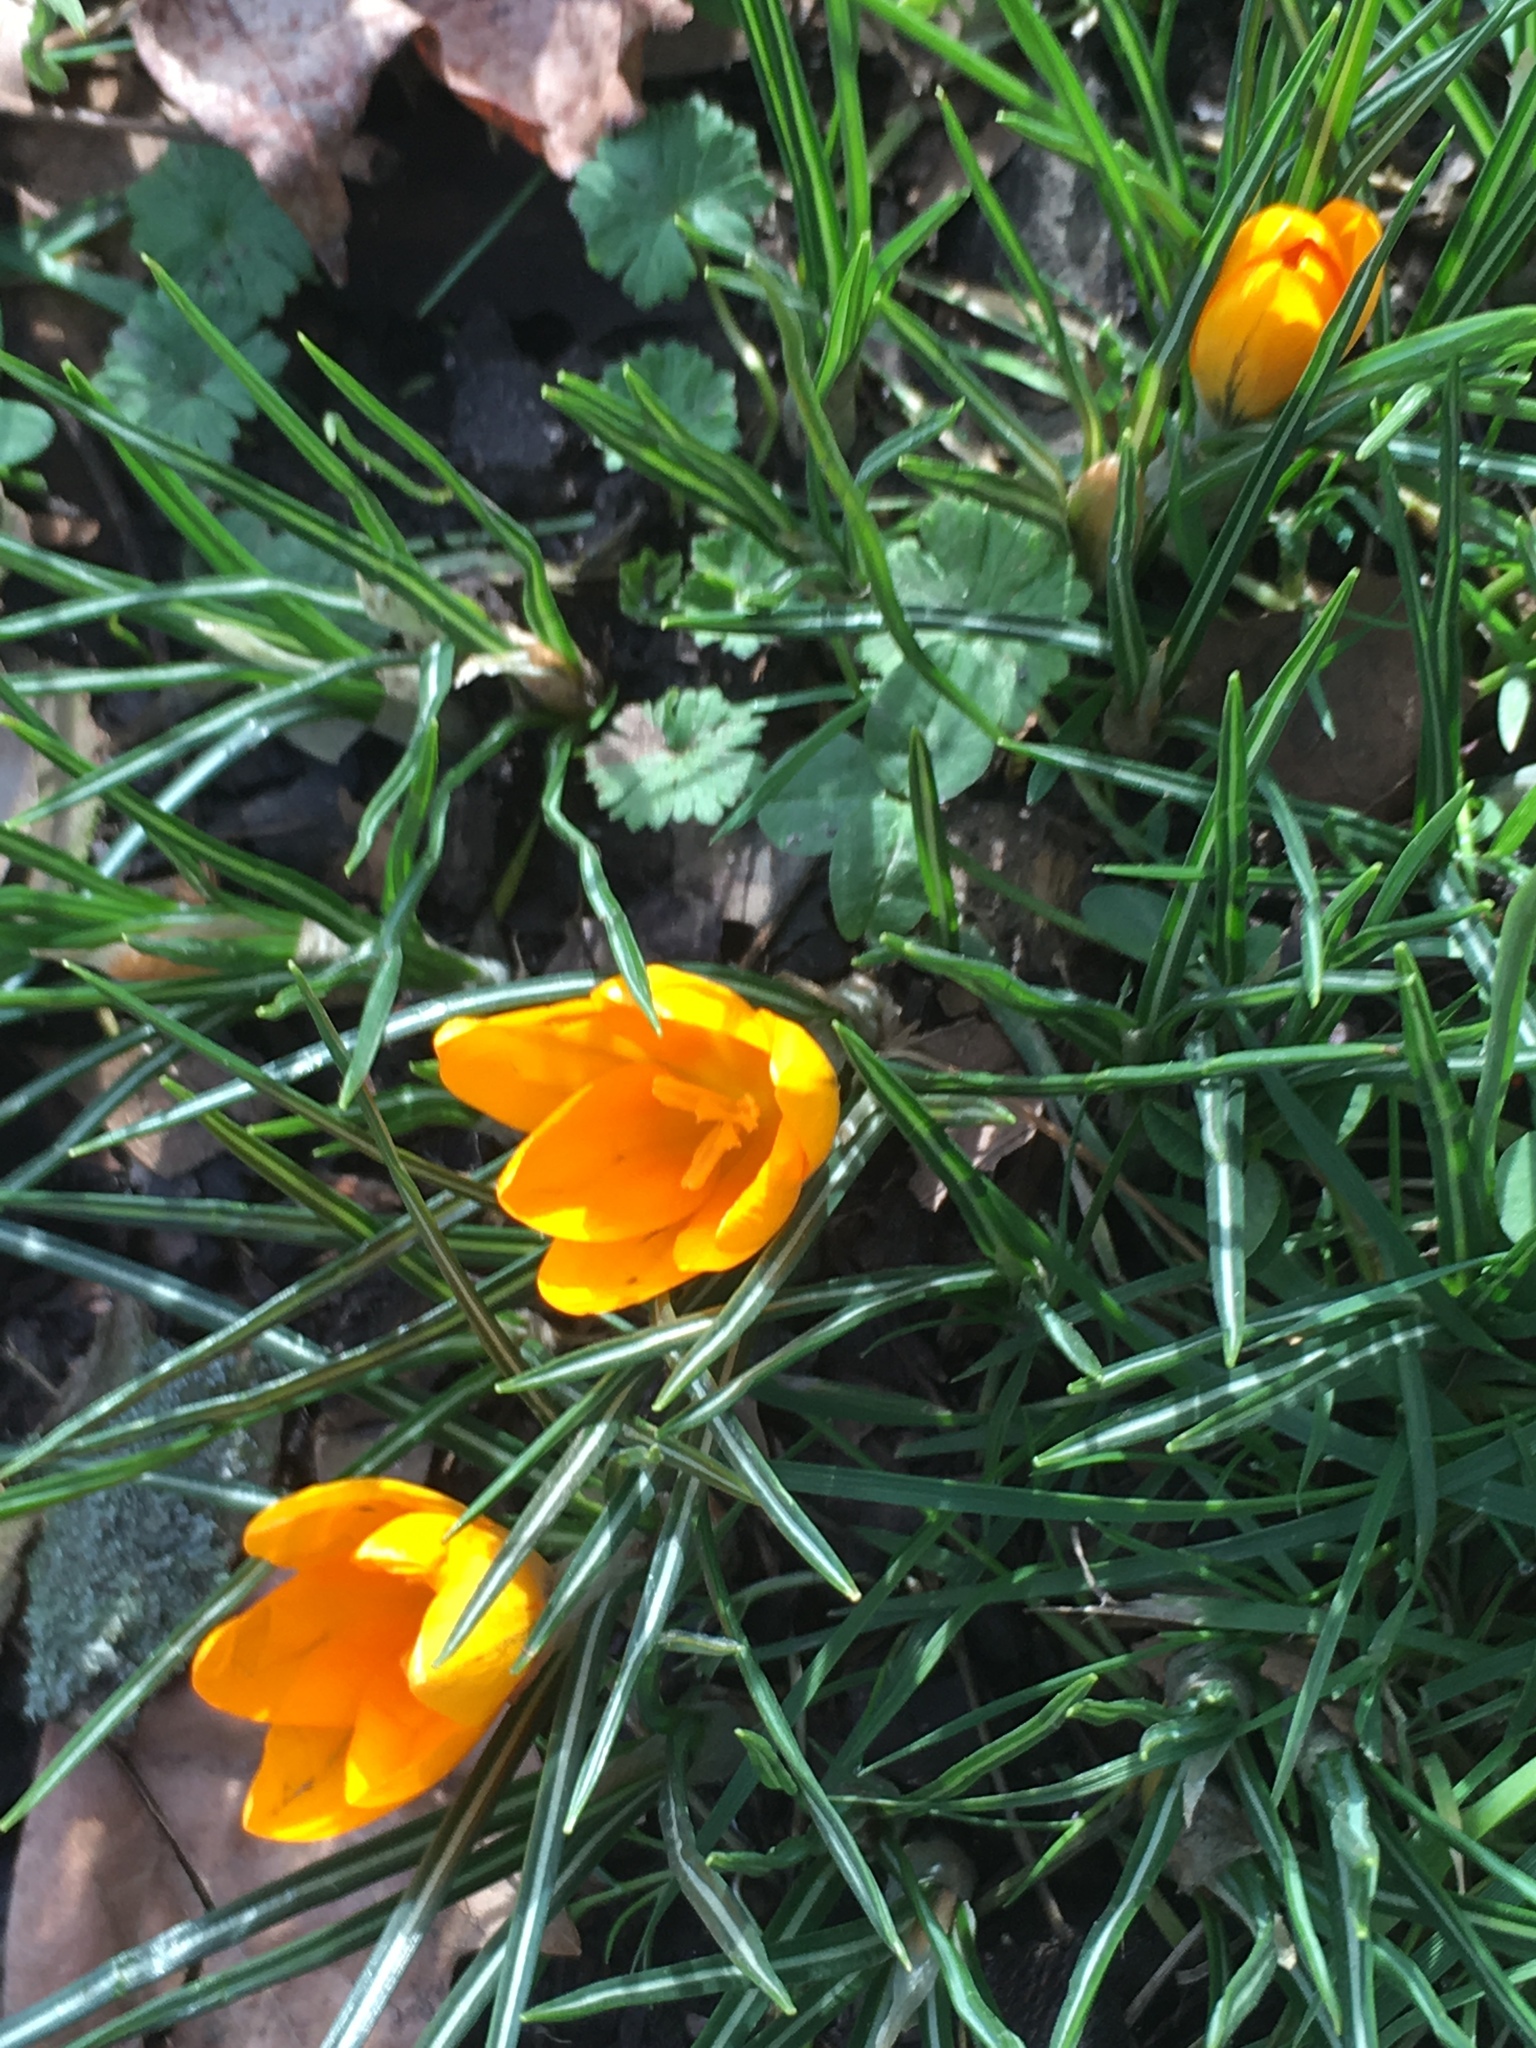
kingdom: Plantae
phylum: Tracheophyta
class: Liliopsida
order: Asparagales
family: Iridaceae
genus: Crocus
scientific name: Crocus luteus
